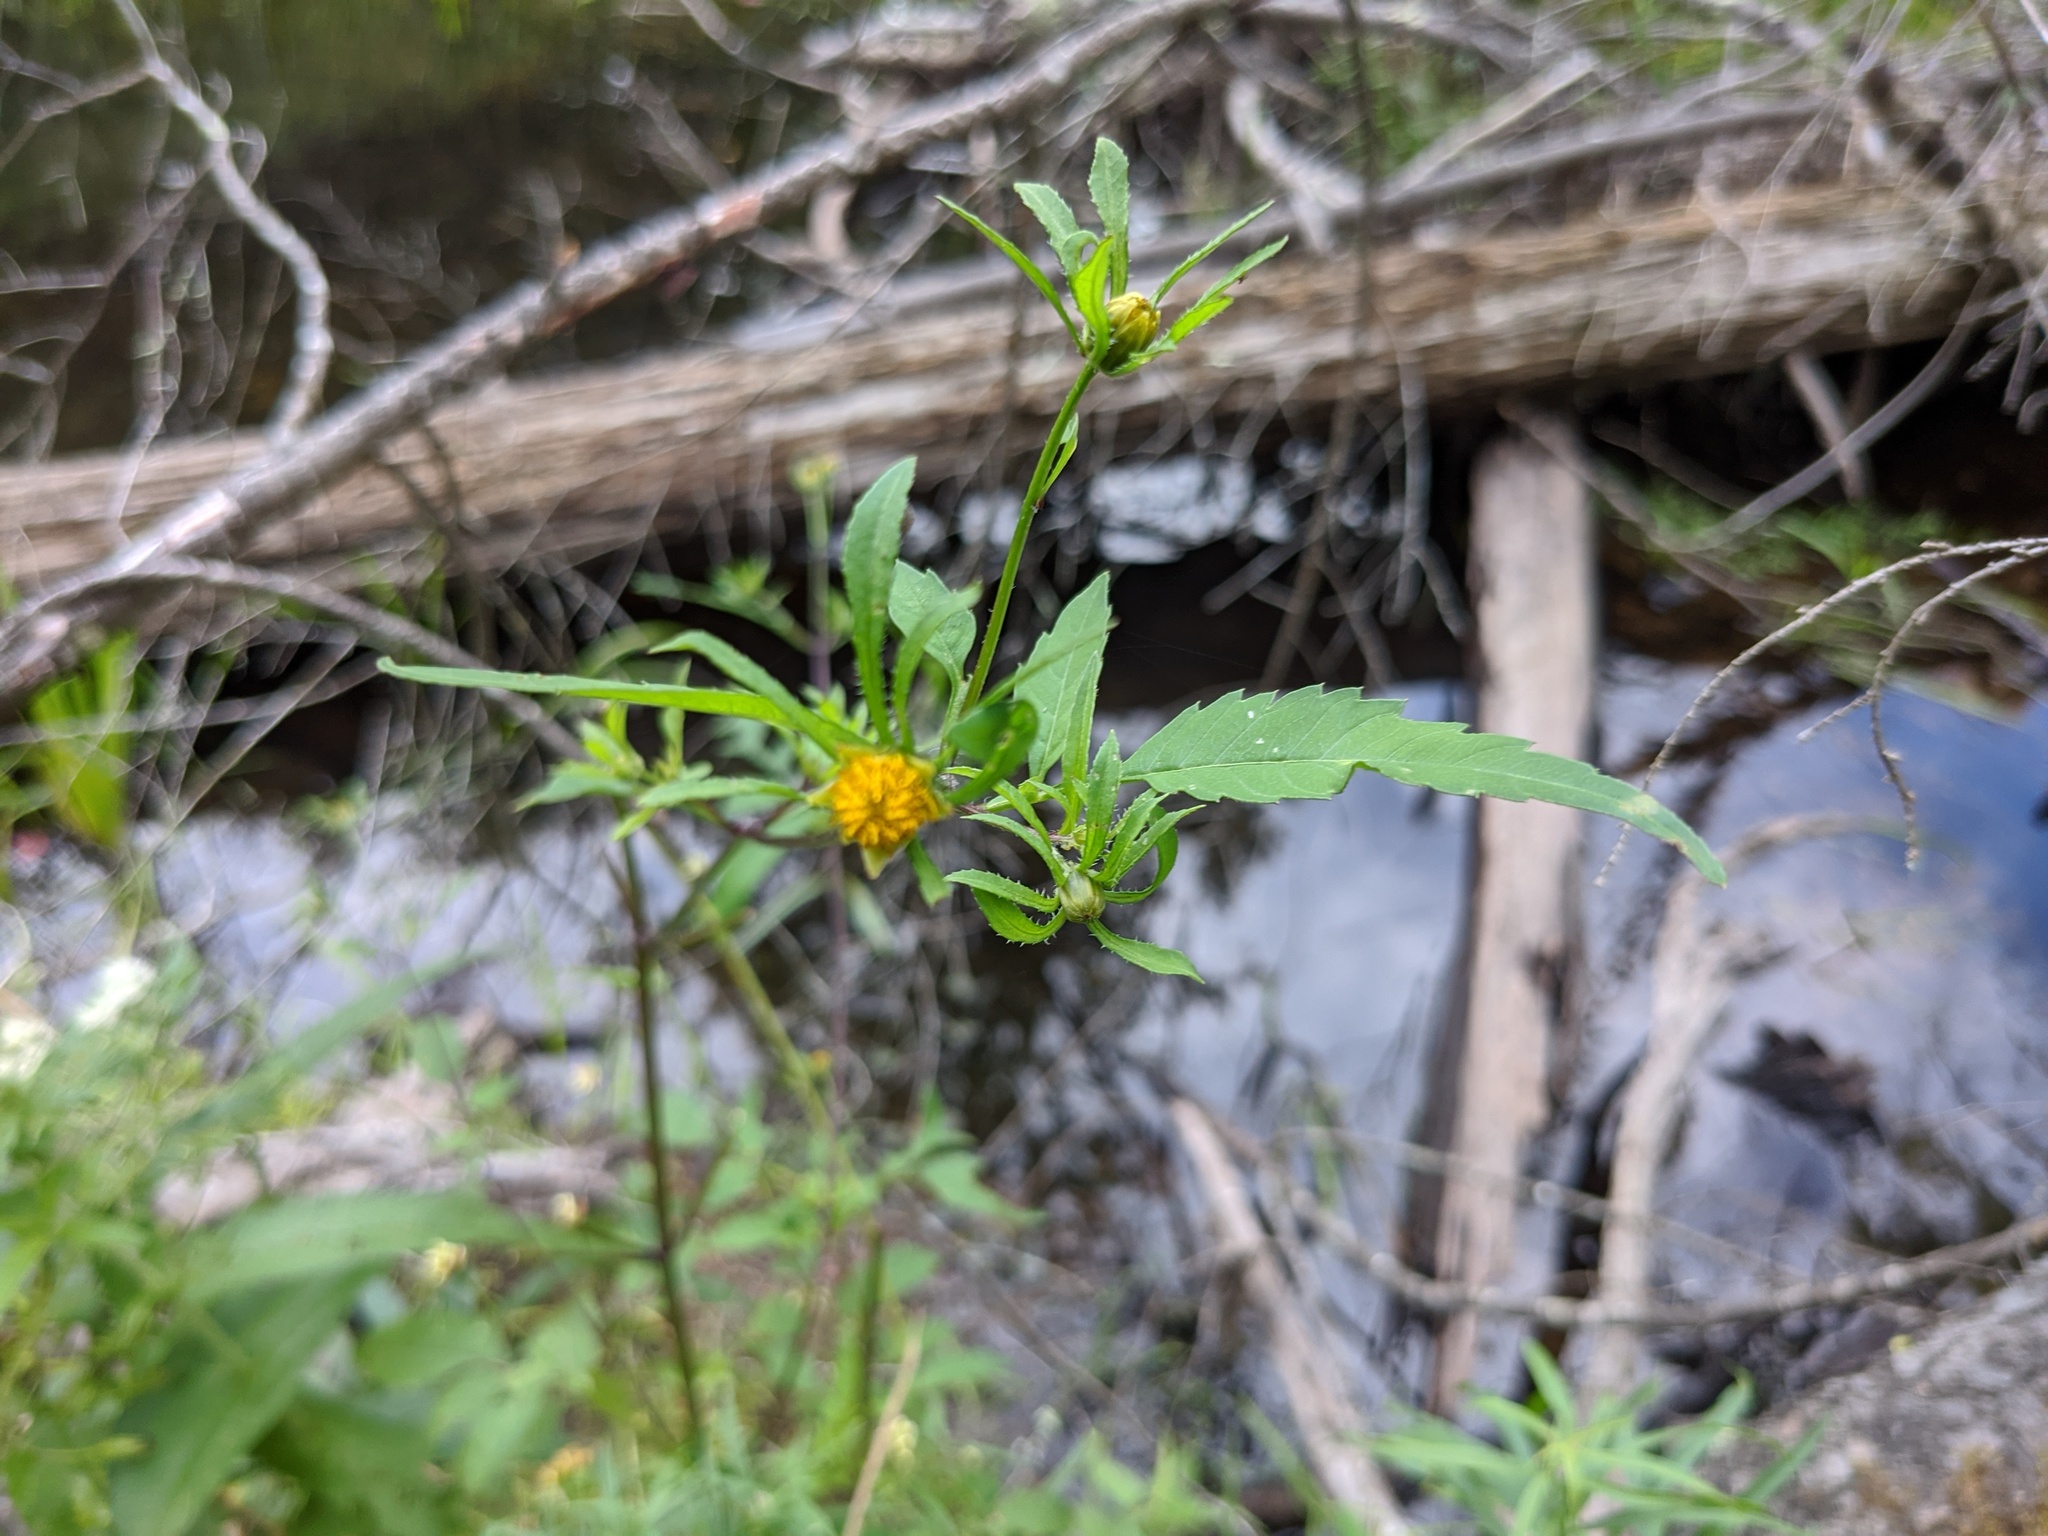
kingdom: Plantae
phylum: Tracheophyta
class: Magnoliopsida
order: Asterales
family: Asteraceae
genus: Bidens
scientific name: Bidens frondosa
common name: Beggarticks
